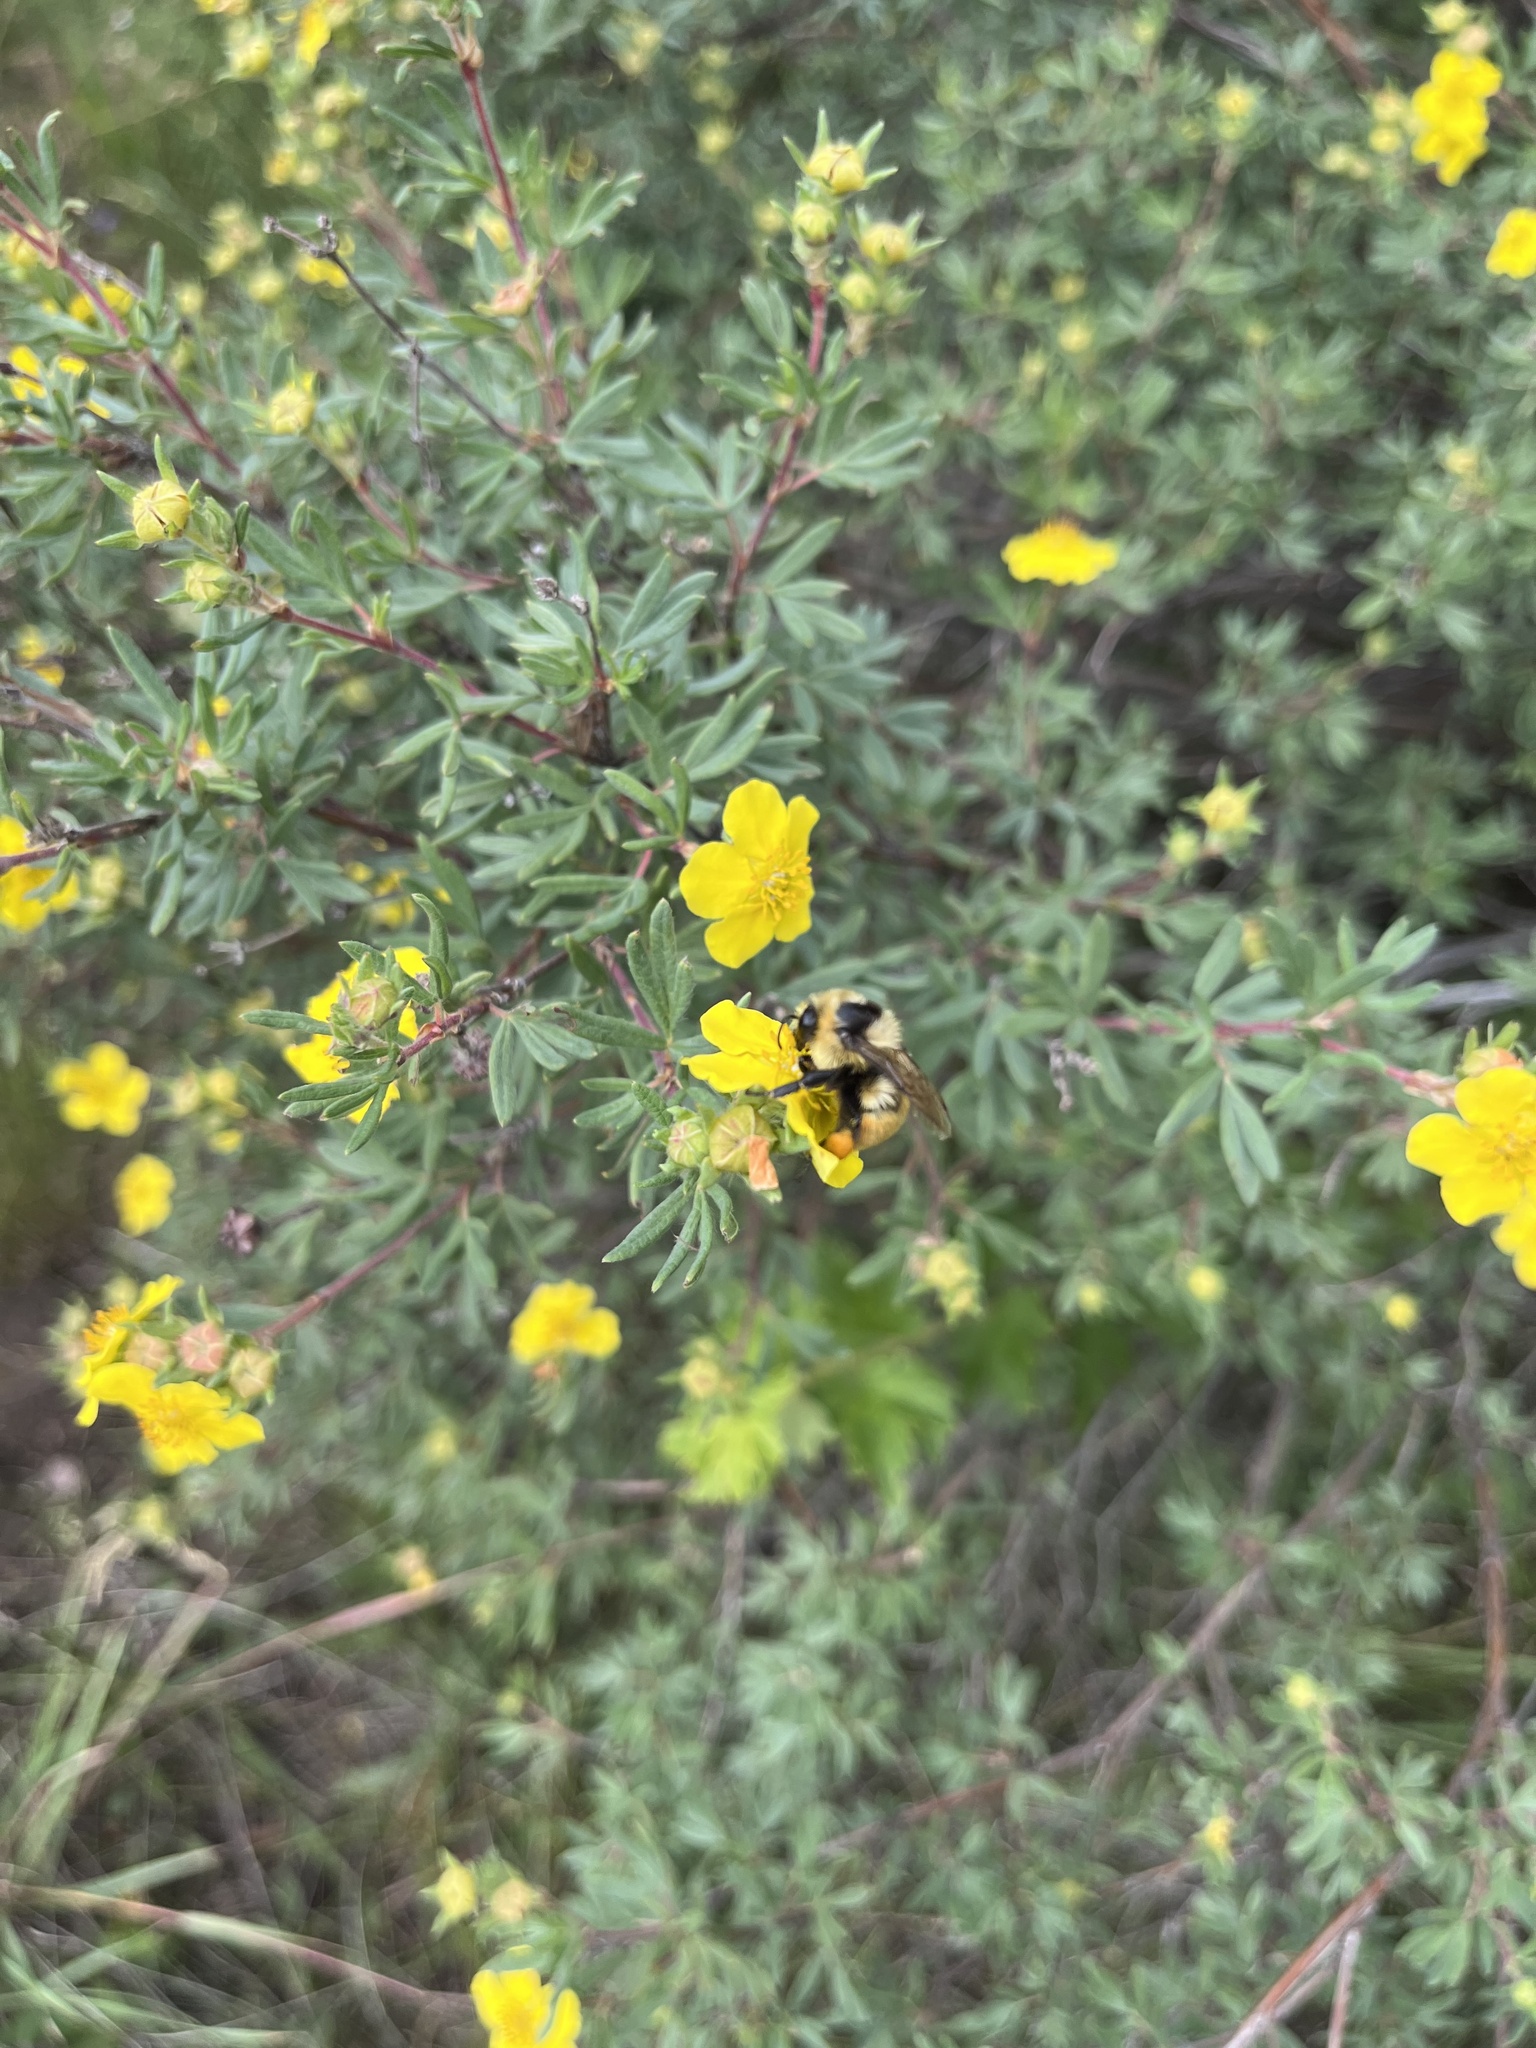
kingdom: Animalia
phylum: Arthropoda
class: Insecta
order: Hymenoptera
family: Apidae
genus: Bombus
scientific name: Bombus huntii
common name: Hunt bumble bee
